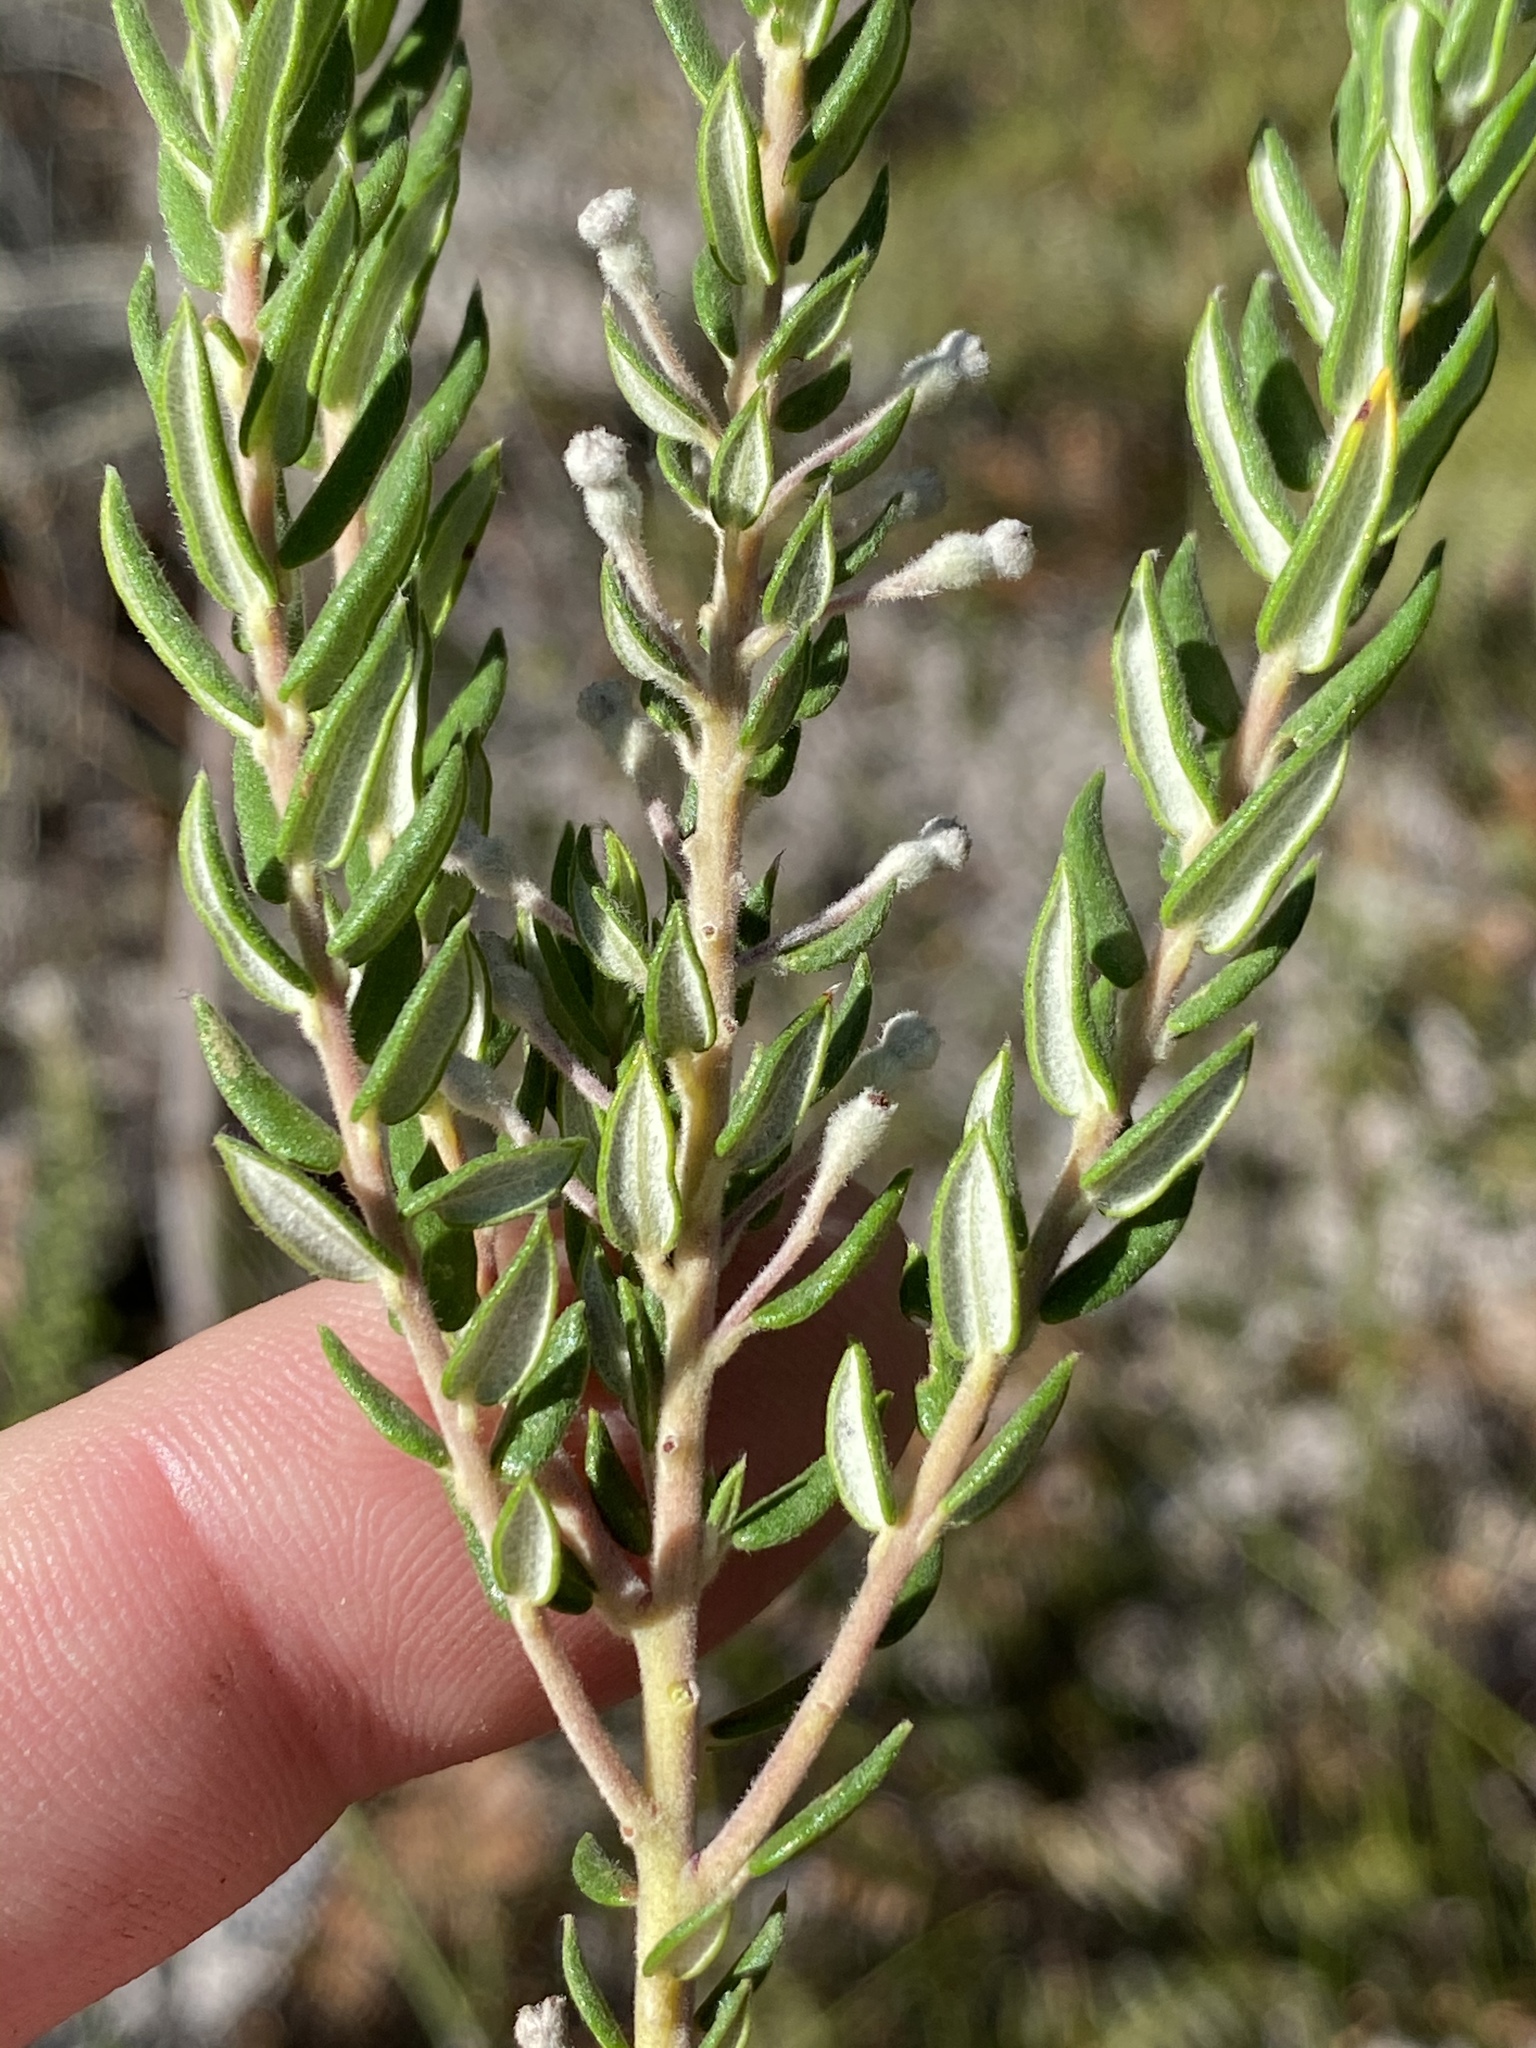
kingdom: Plantae
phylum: Tracheophyta
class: Magnoliopsida
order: Rosales
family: Rhamnaceae
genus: Phylica
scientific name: Phylica pinea
